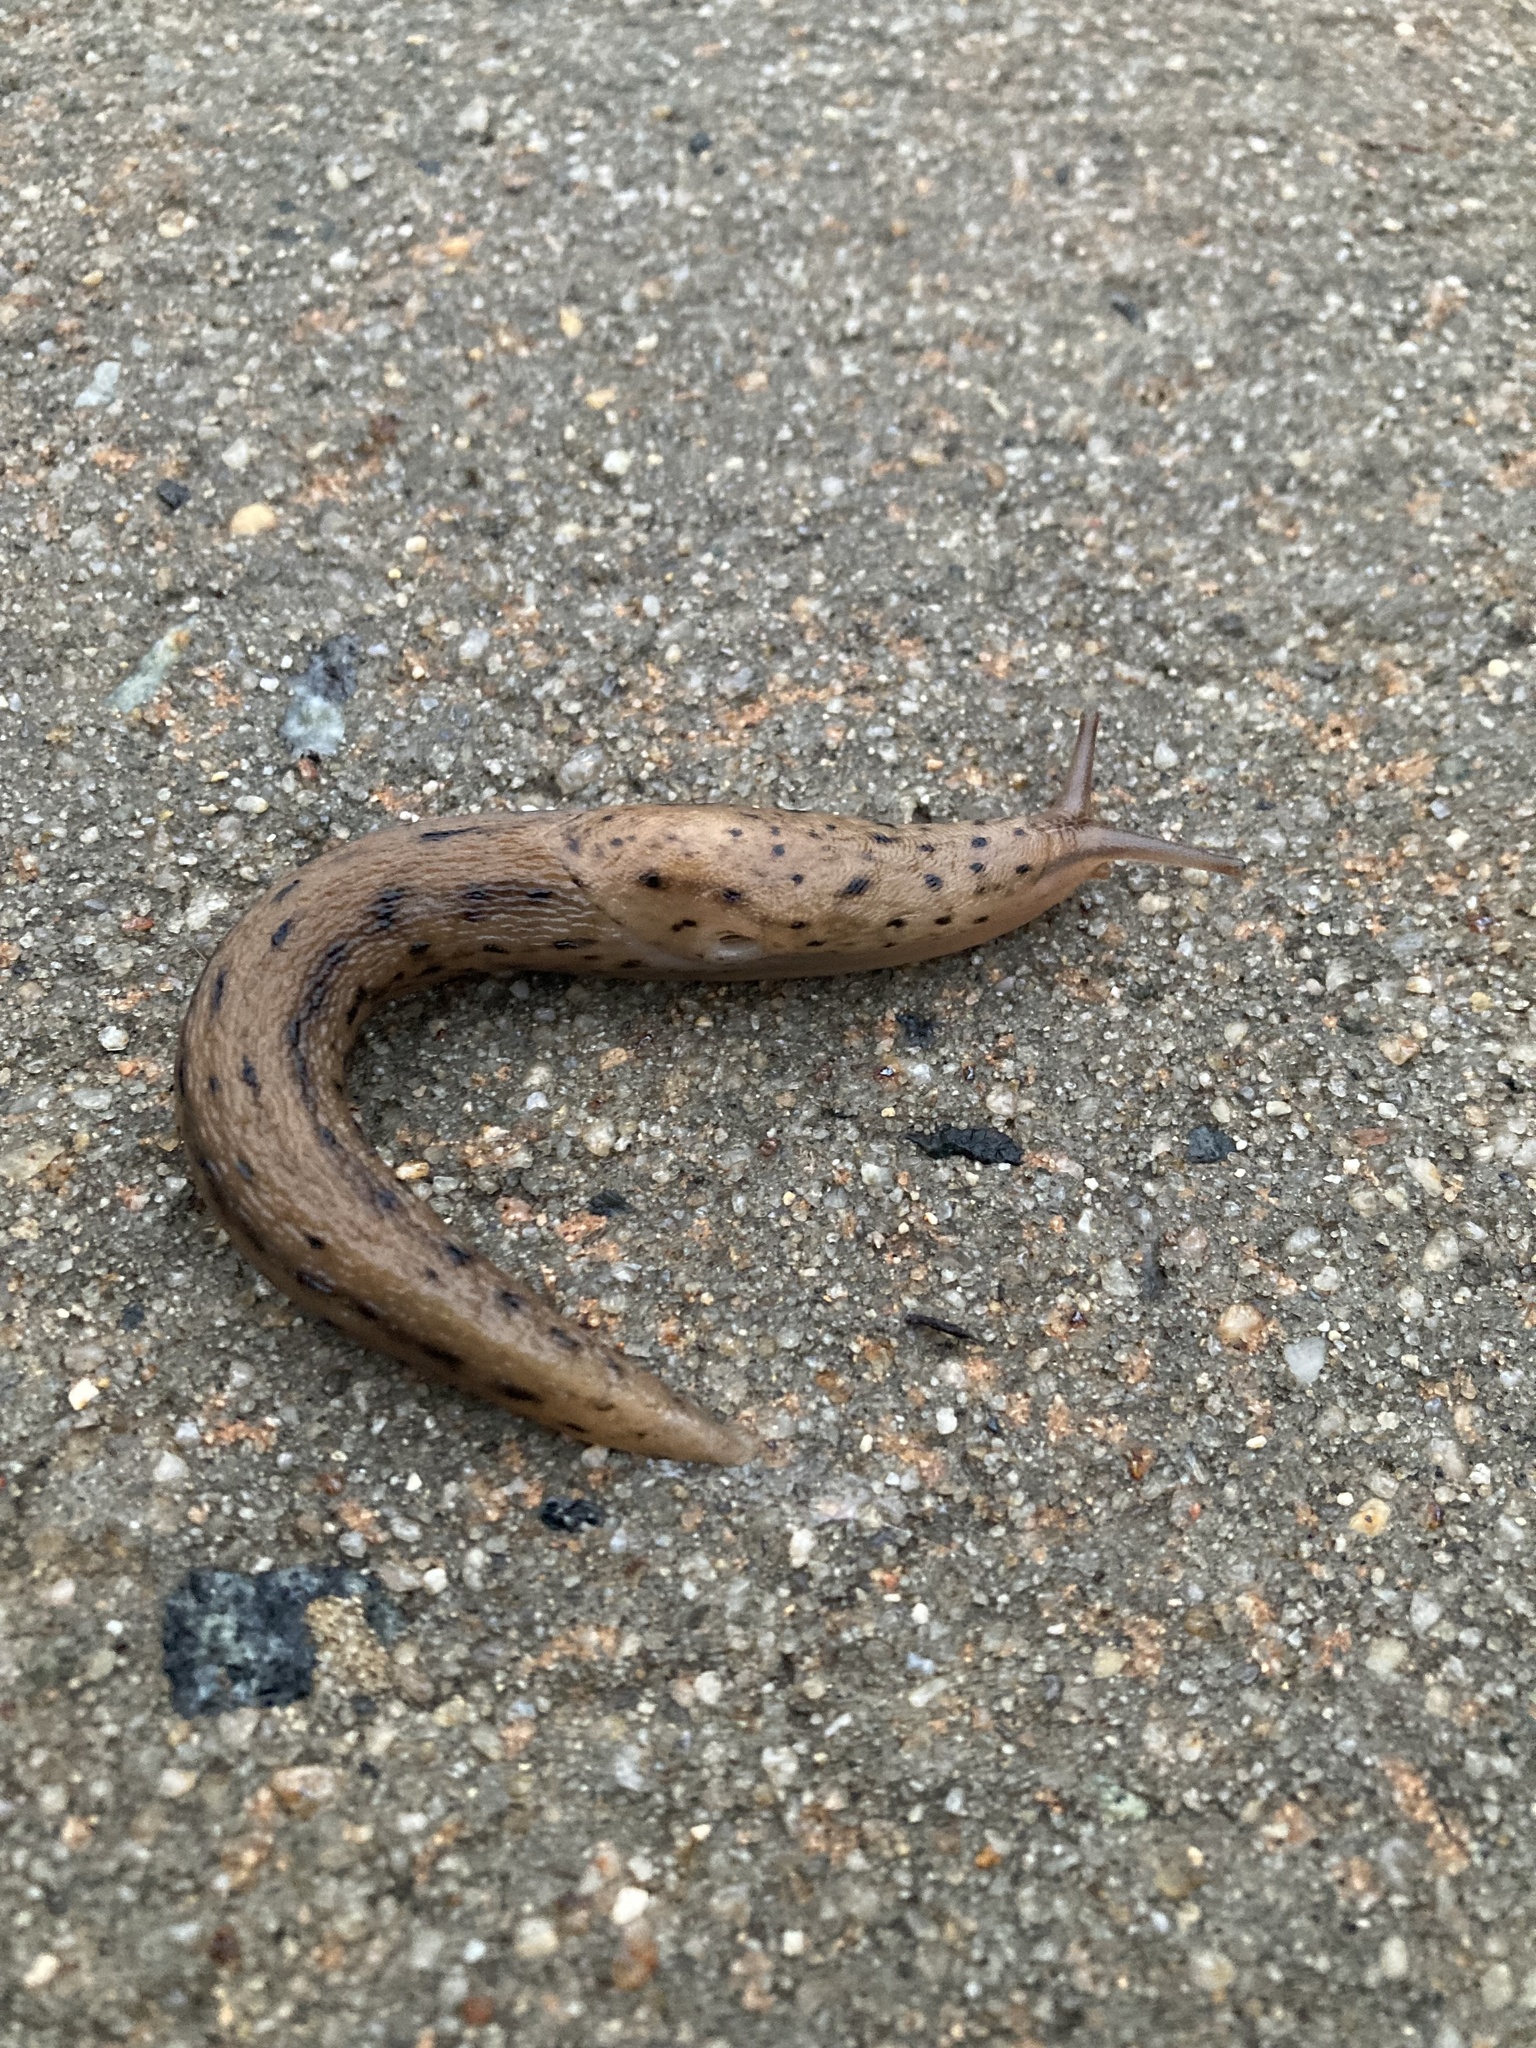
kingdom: Animalia
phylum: Mollusca
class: Gastropoda
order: Stylommatophora
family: Limacidae
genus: Limax
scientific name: Limax maximus
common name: Great grey slug
